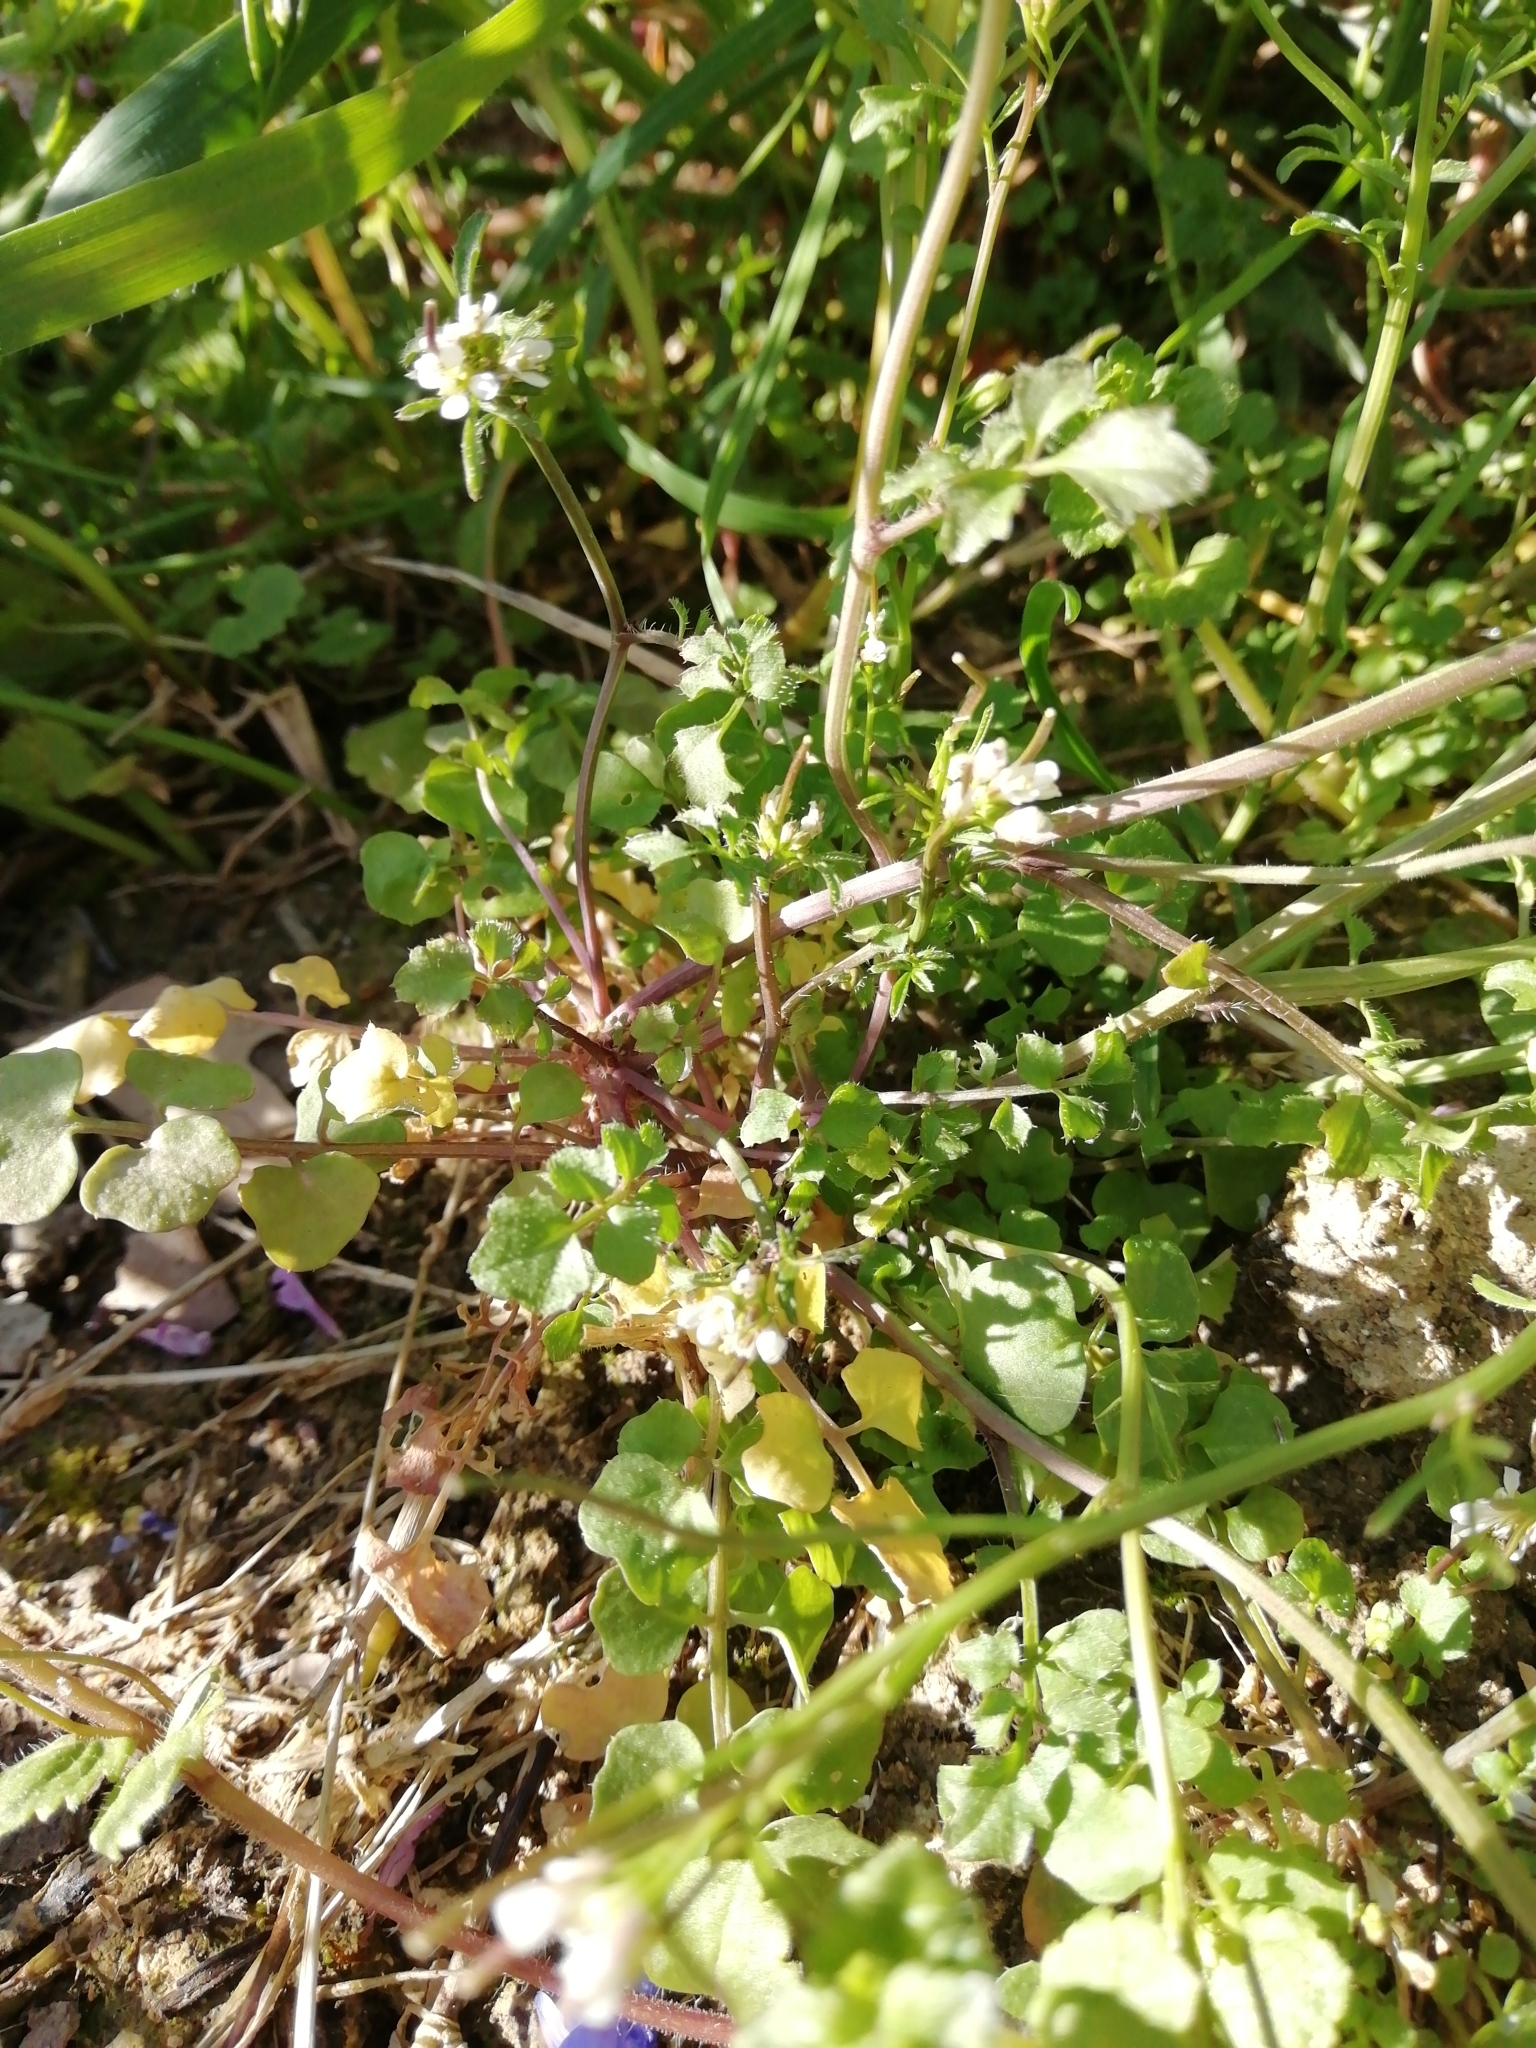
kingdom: Plantae
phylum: Tracheophyta
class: Magnoliopsida
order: Brassicales
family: Brassicaceae
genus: Cardamine
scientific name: Cardamine hirsuta
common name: Hairy bittercress
